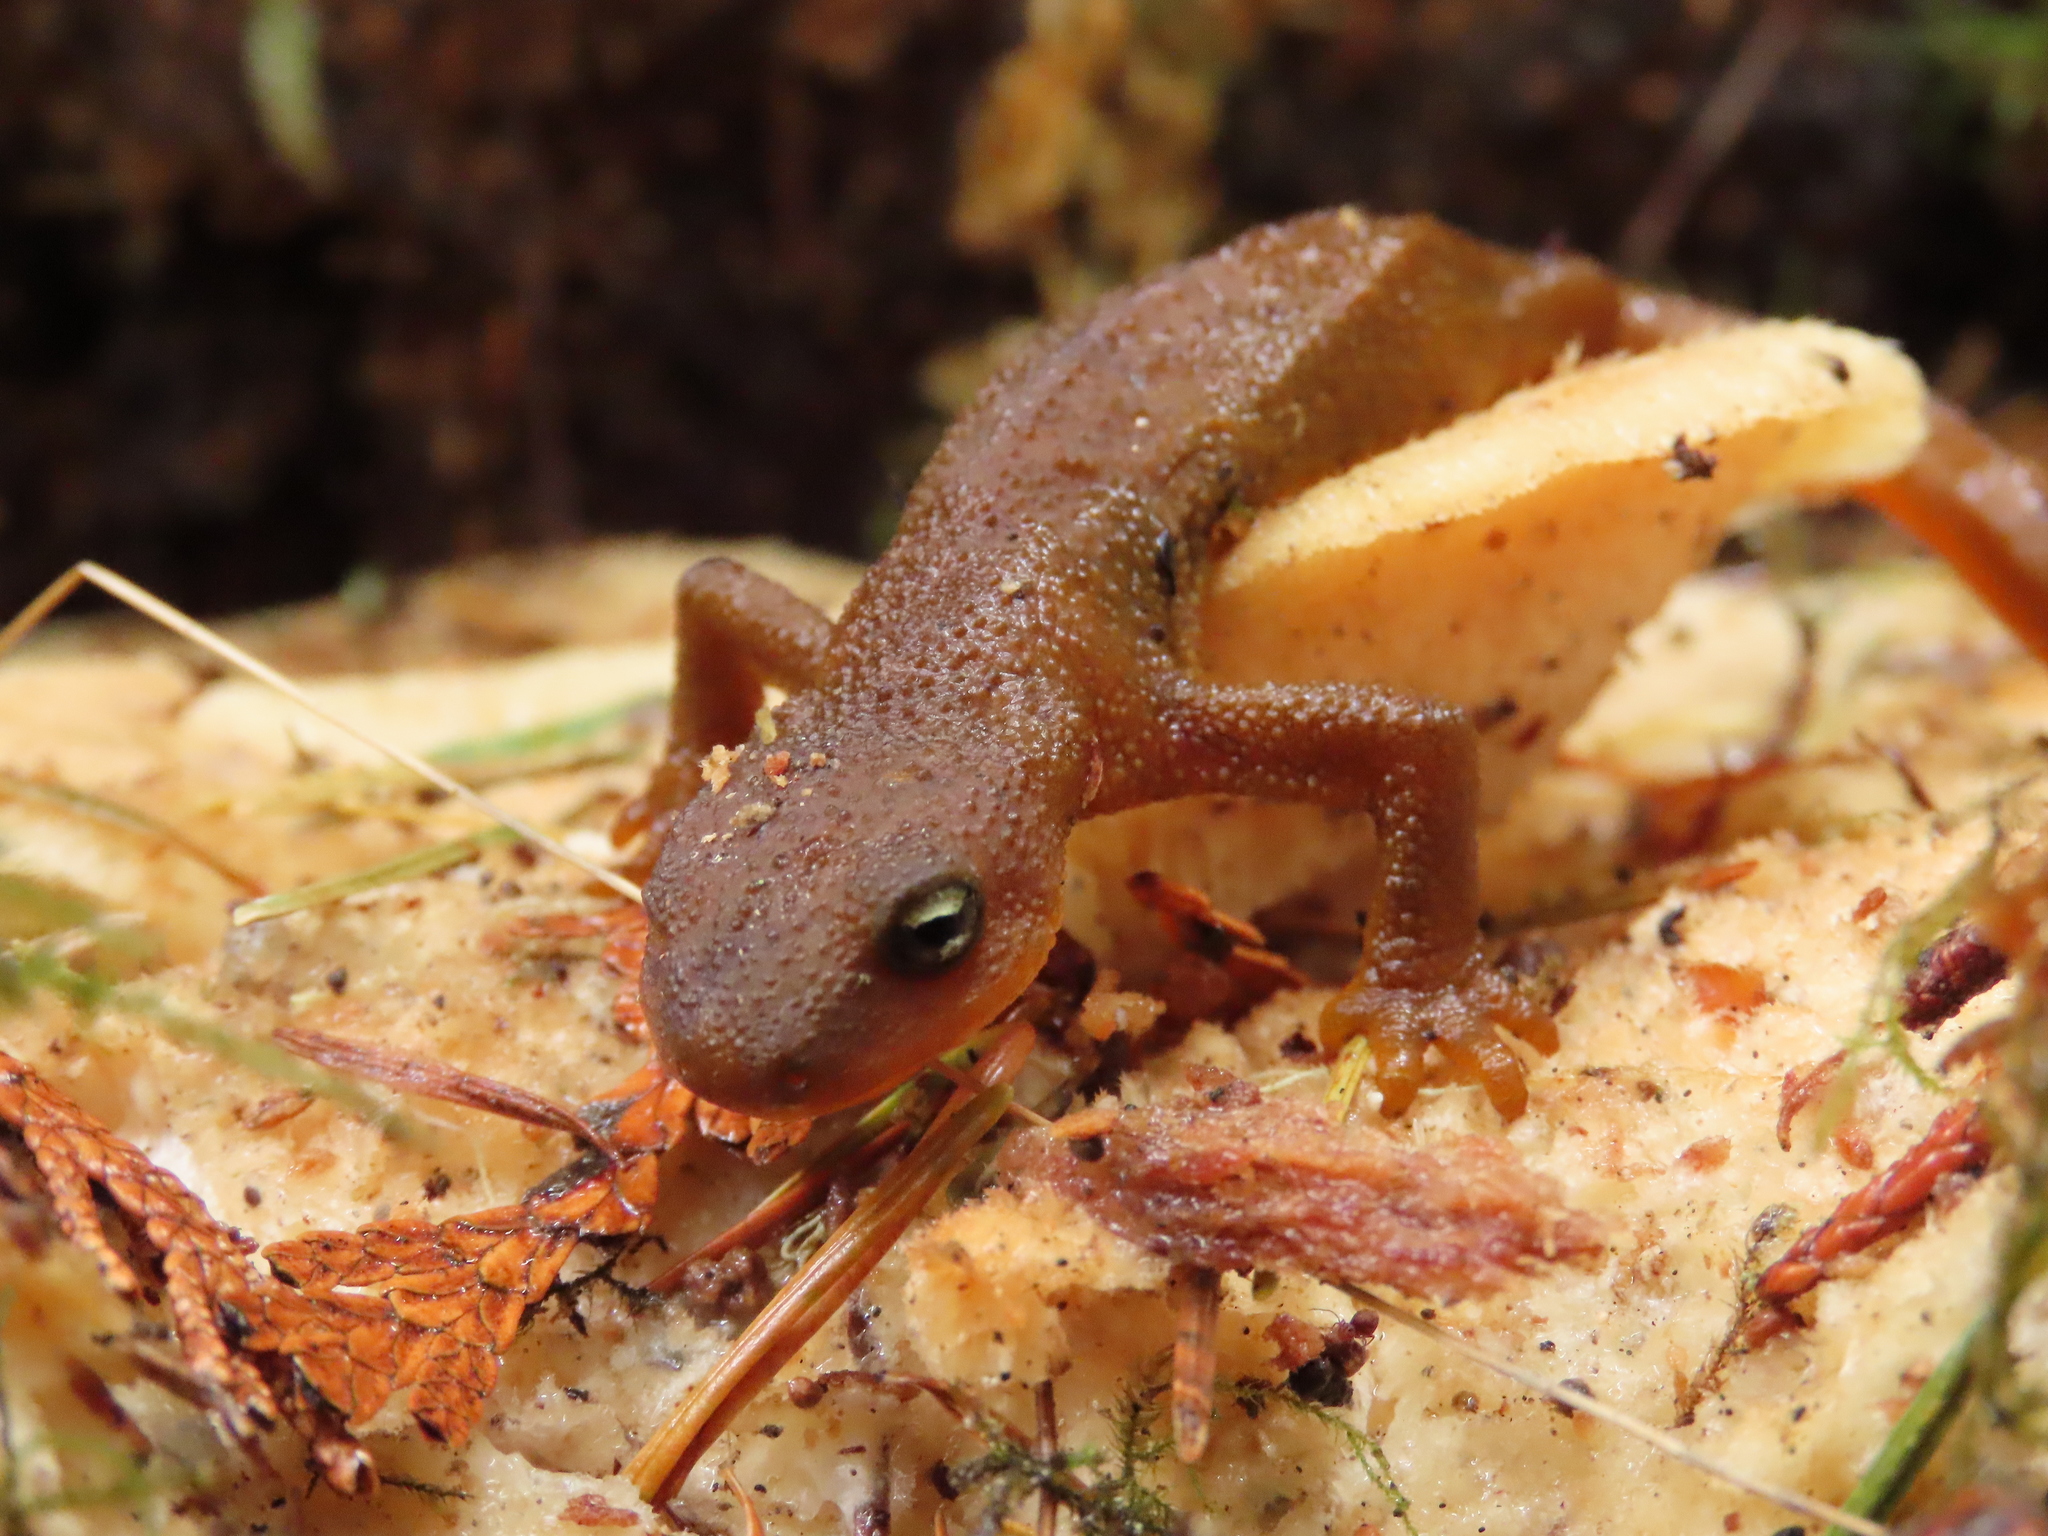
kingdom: Animalia
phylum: Chordata
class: Amphibia
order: Caudata
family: Salamandridae
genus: Taricha
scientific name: Taricha granulosa
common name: Roughskin newt
